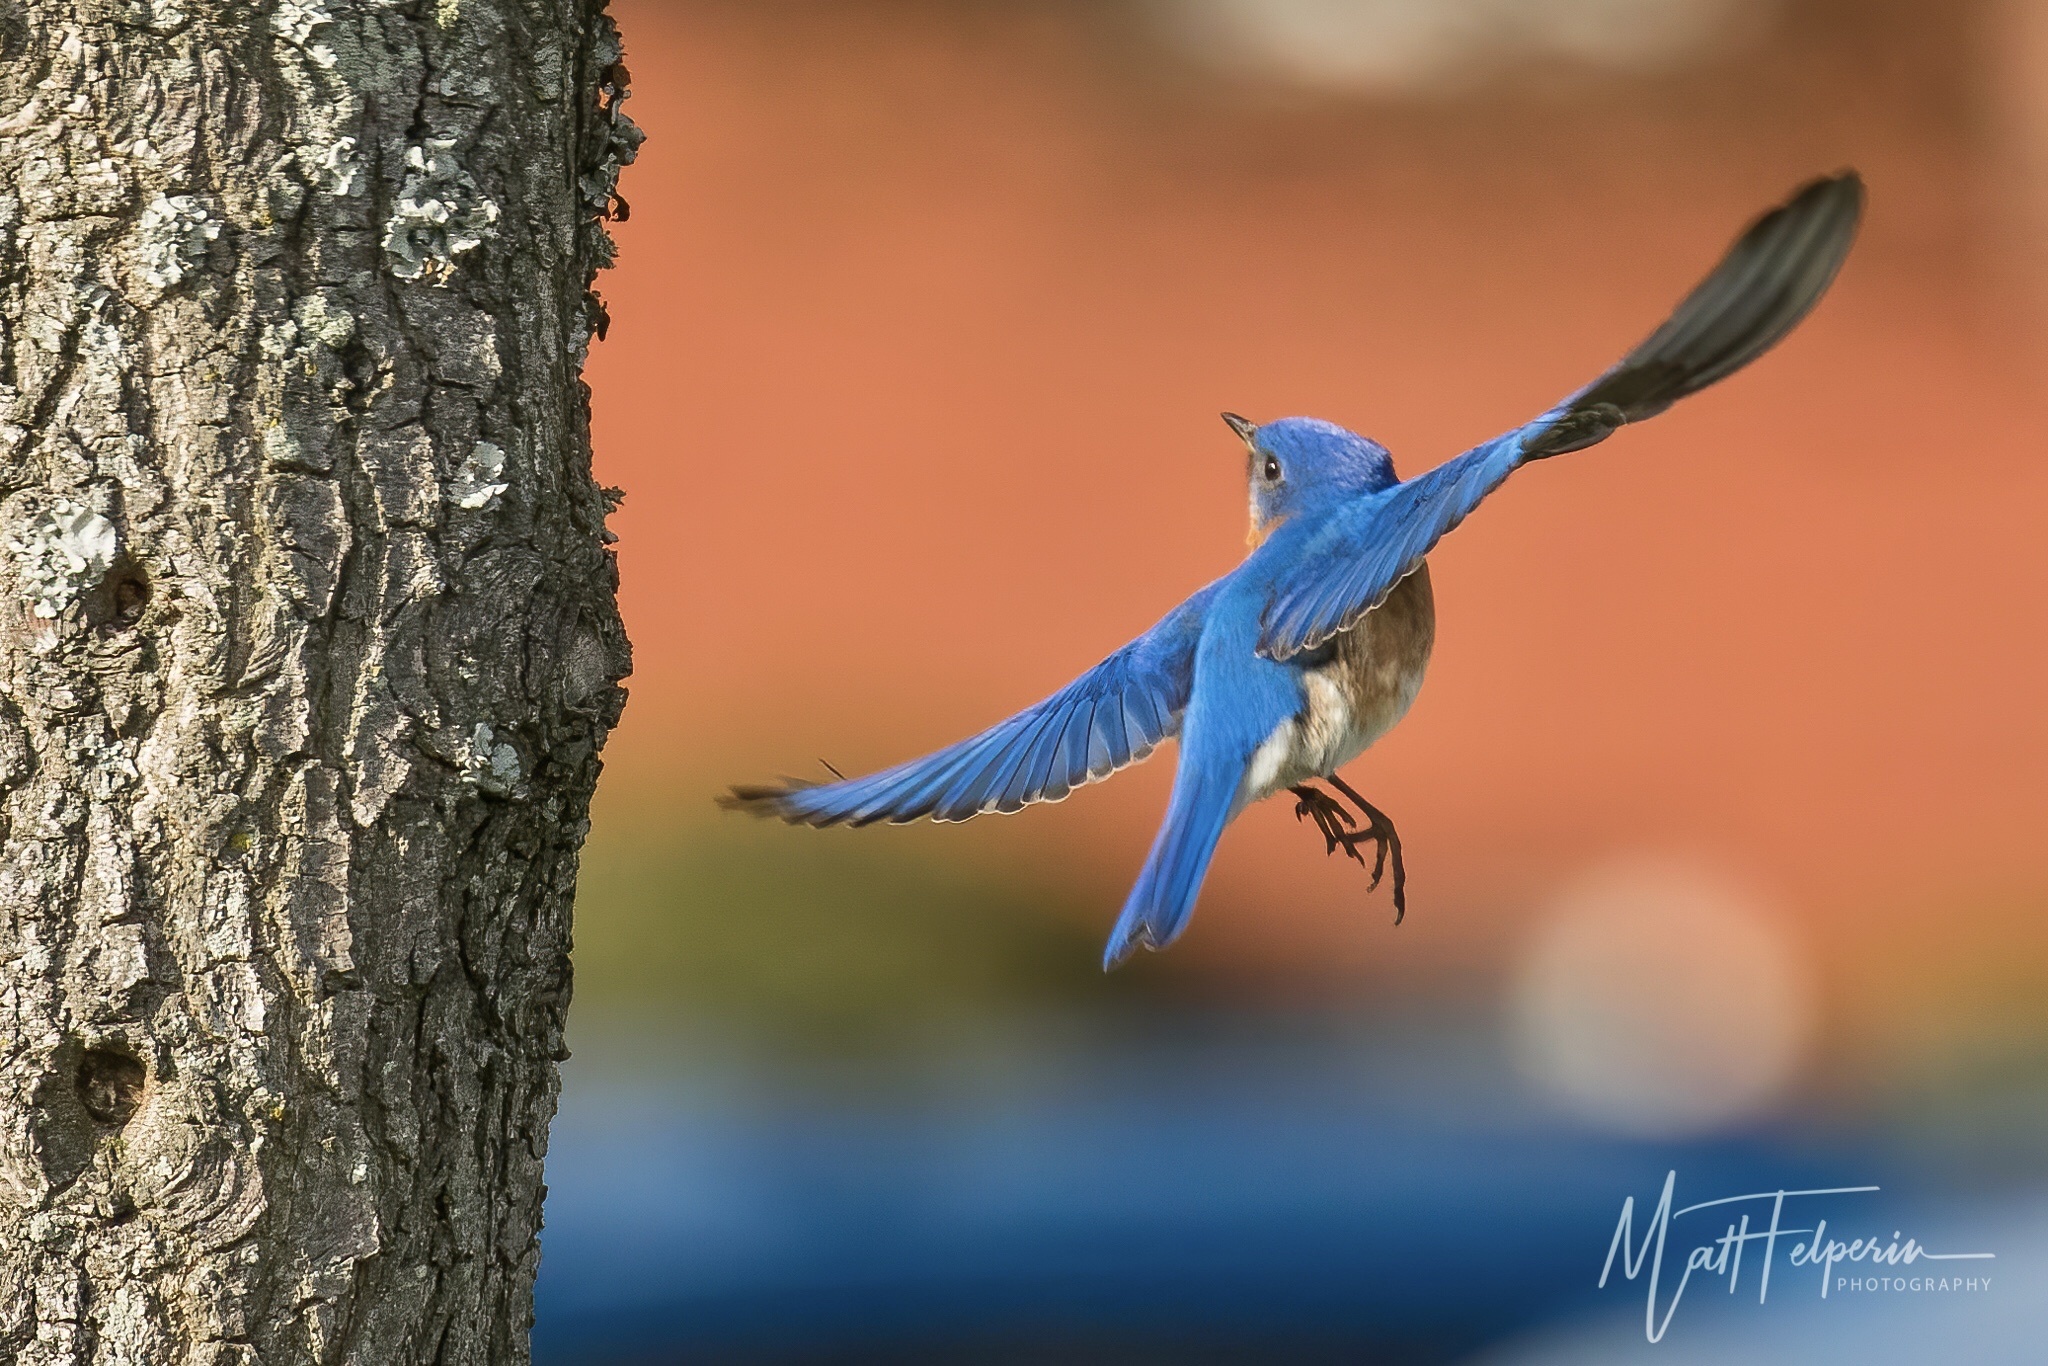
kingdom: Animalia
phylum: Chordata
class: Aves
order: Passeriformes
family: Turdidae
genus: Sialia
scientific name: Sialia sialis
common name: Eastern bluebird
